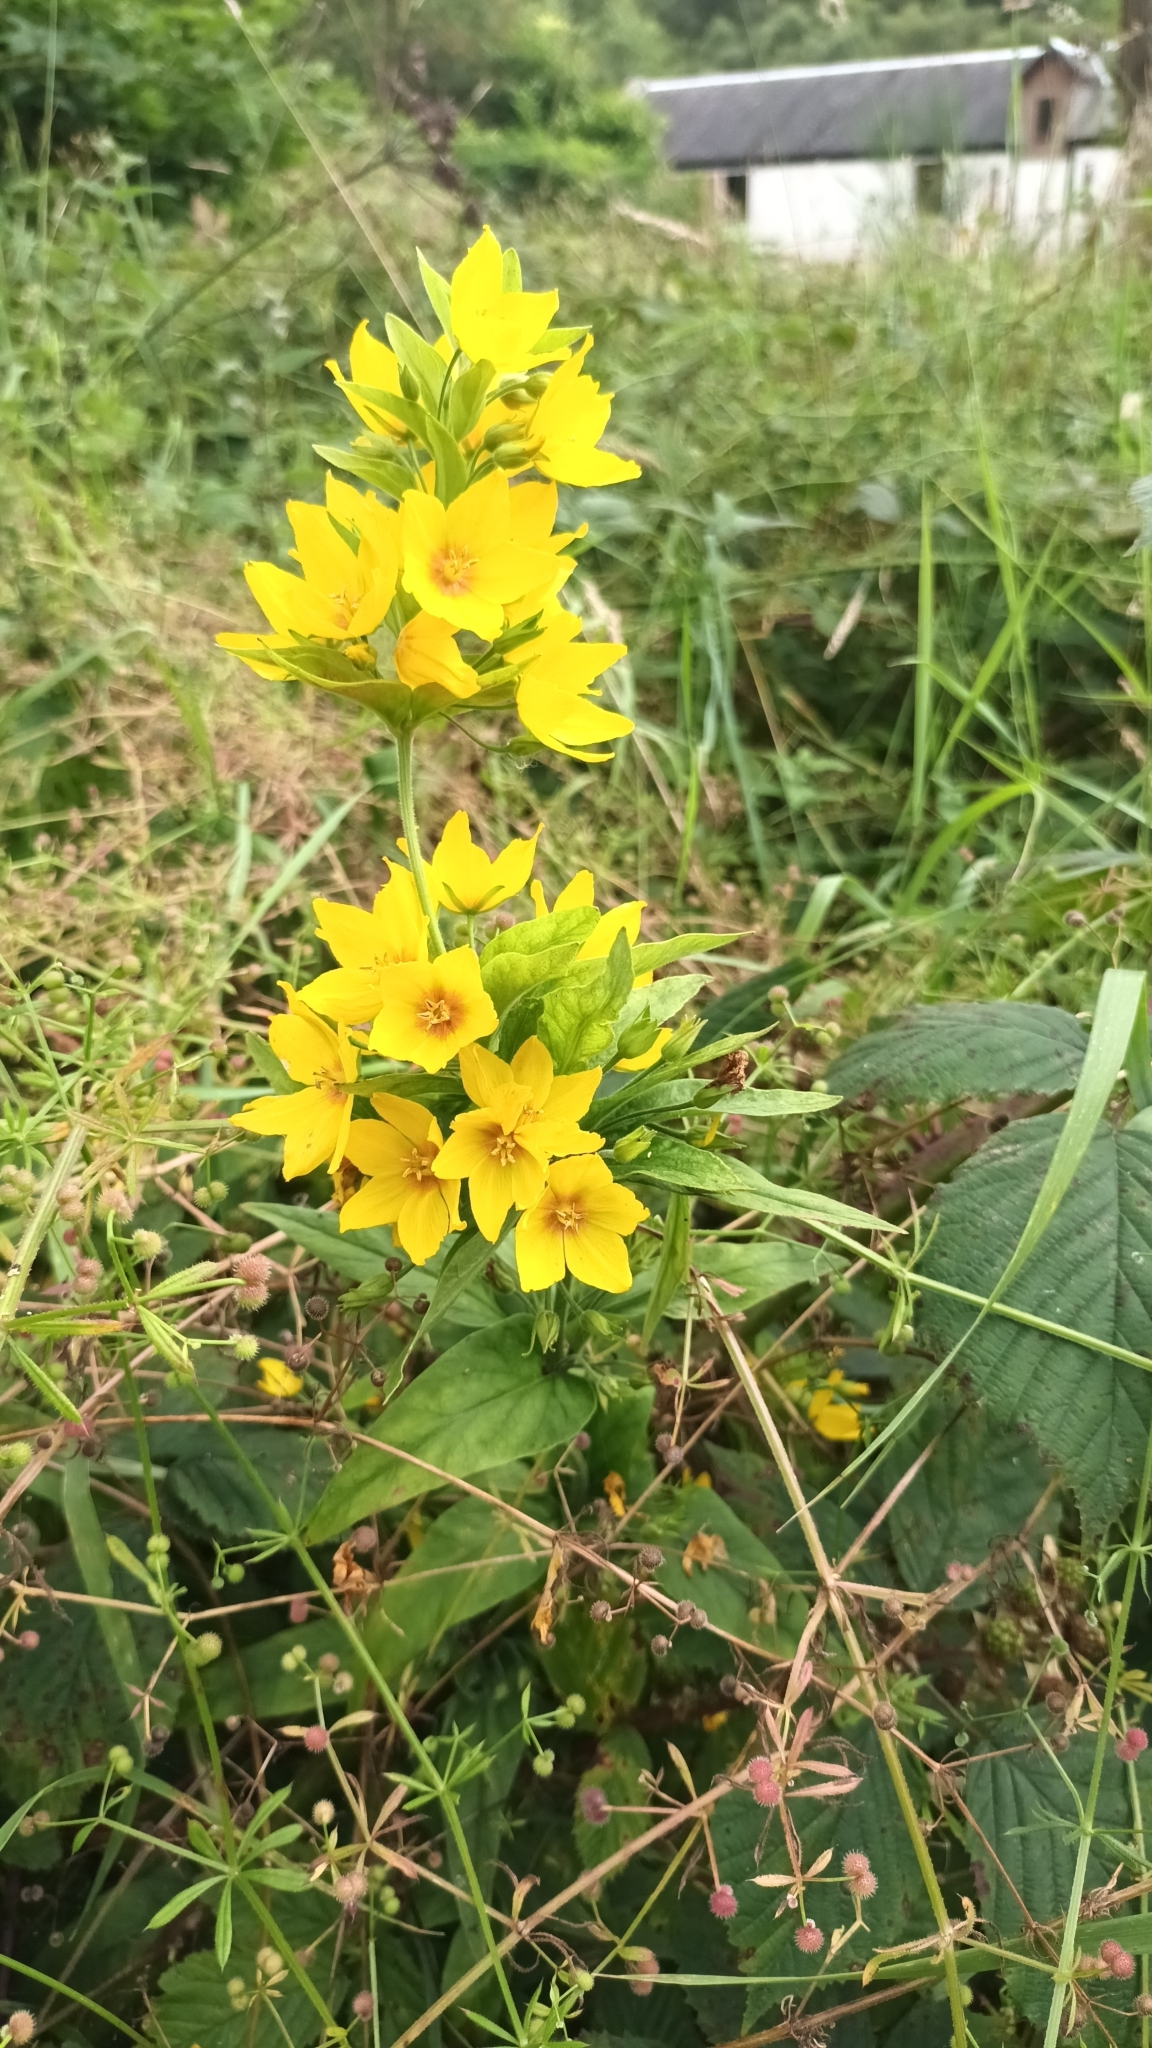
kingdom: Plantae
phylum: Tracheophyta
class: Magnoliopsida
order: Ericales
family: Primulaceae
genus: Lysimachia
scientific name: Lysimachia punctata
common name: Dotted loosestrife
